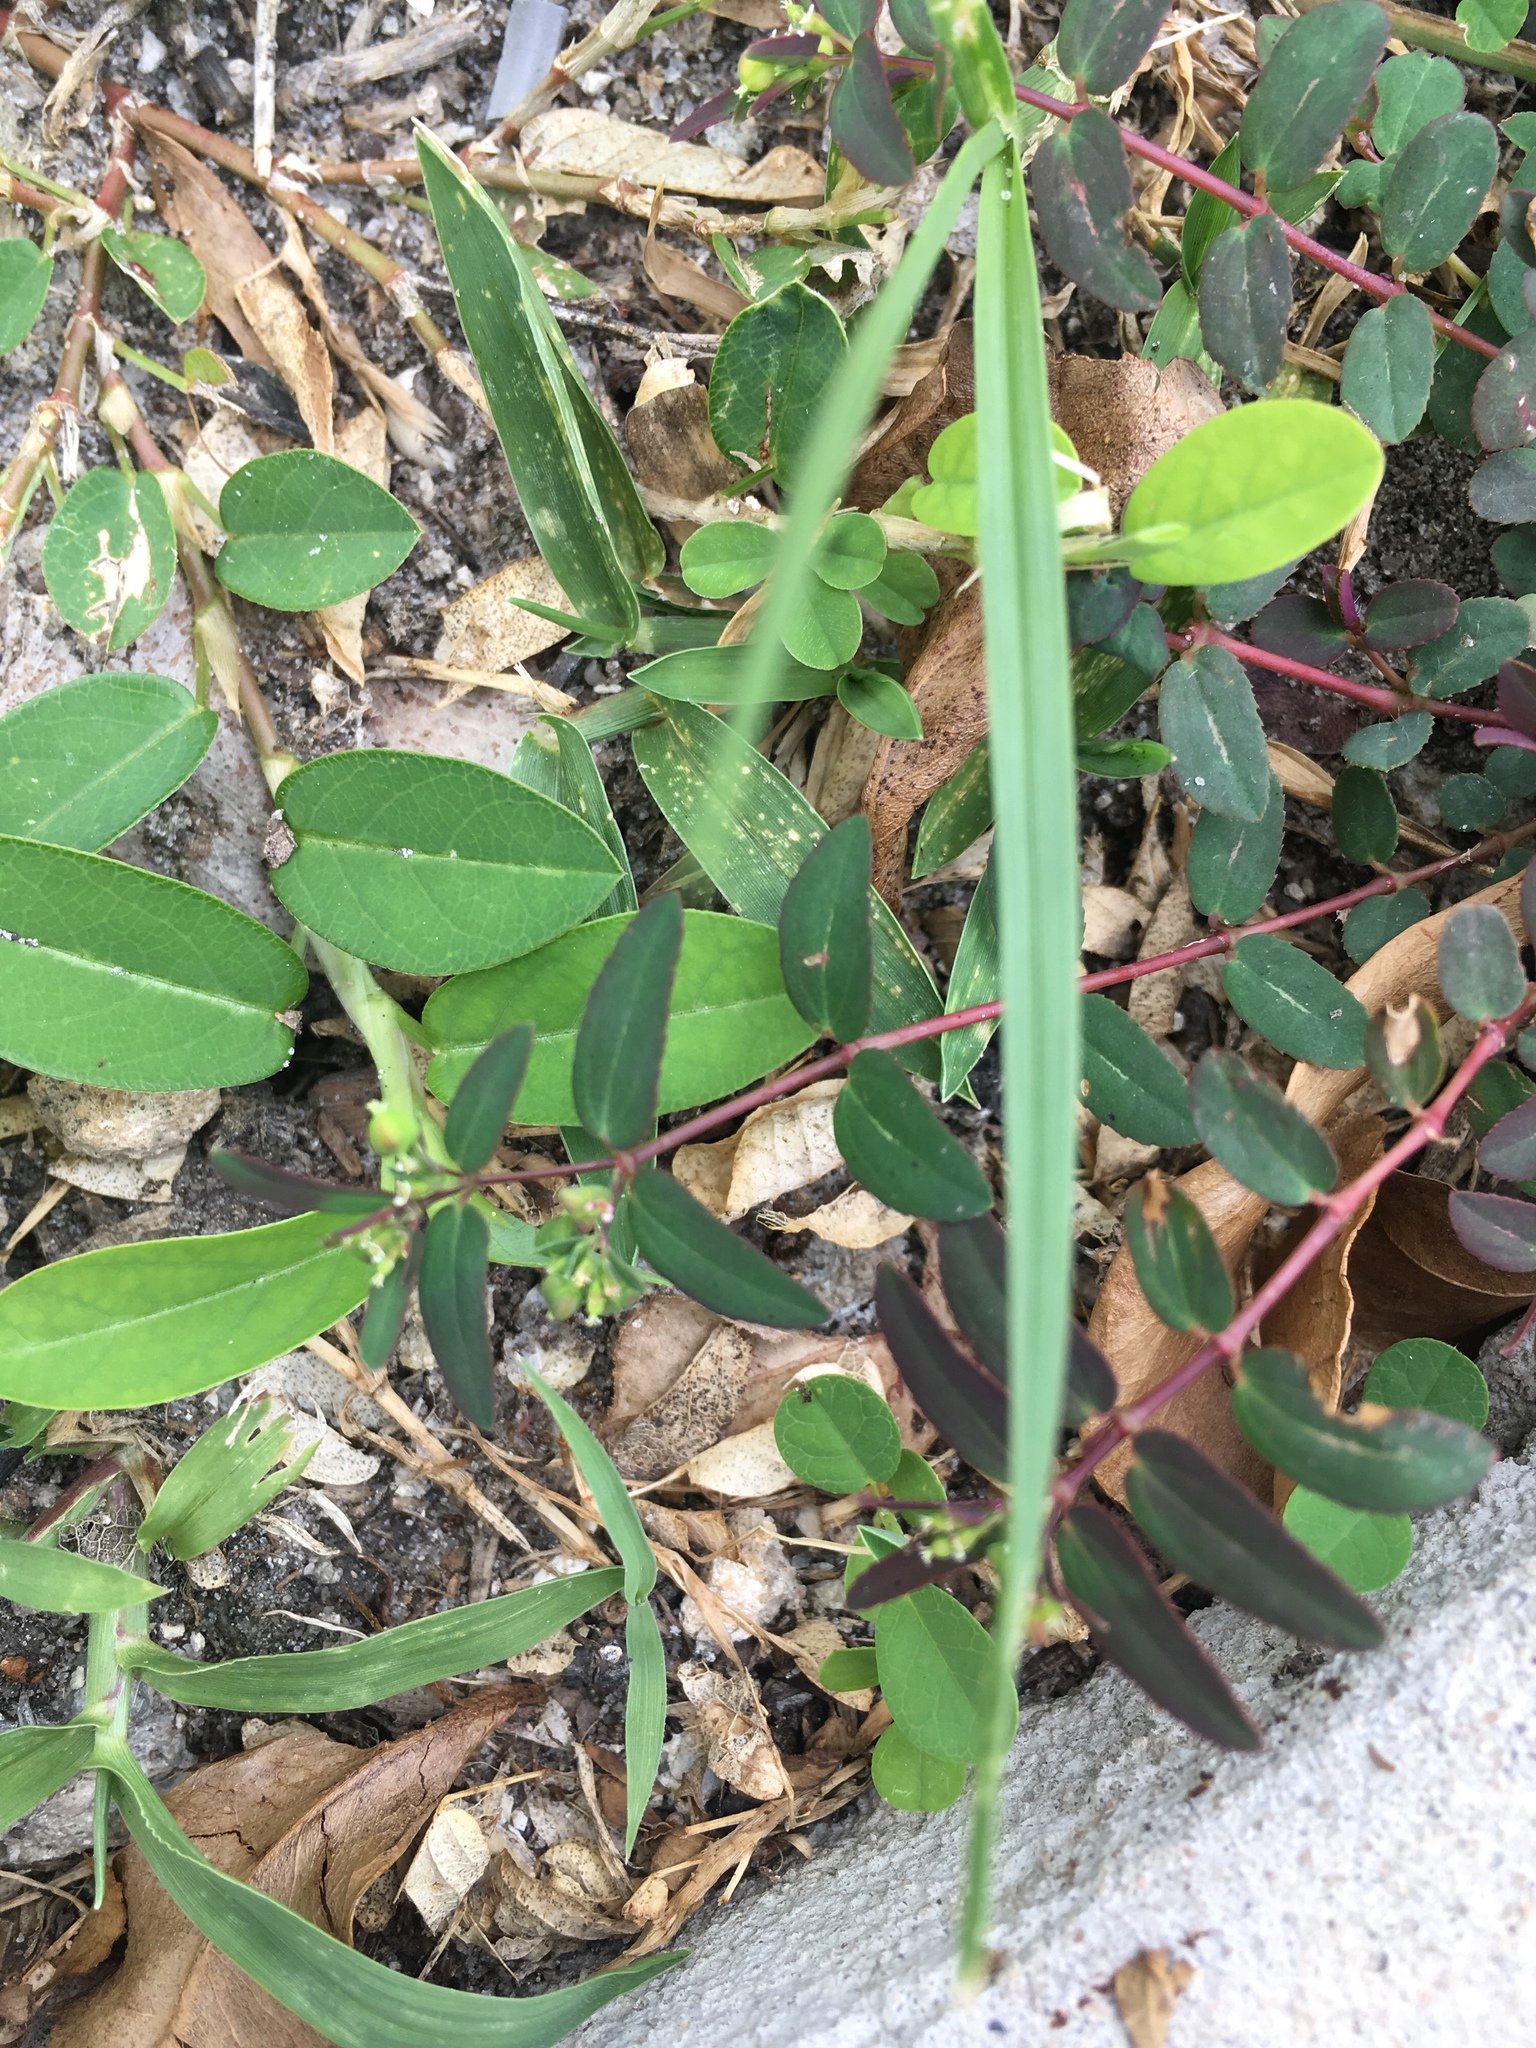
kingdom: Plantae
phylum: Tracheophyta
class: Magnoliopsida
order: Malpighiales
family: Euphorbiaceae
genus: Euphorbia
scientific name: Euphorbia hyssopifolia
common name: Hyssopleaf sandmat
